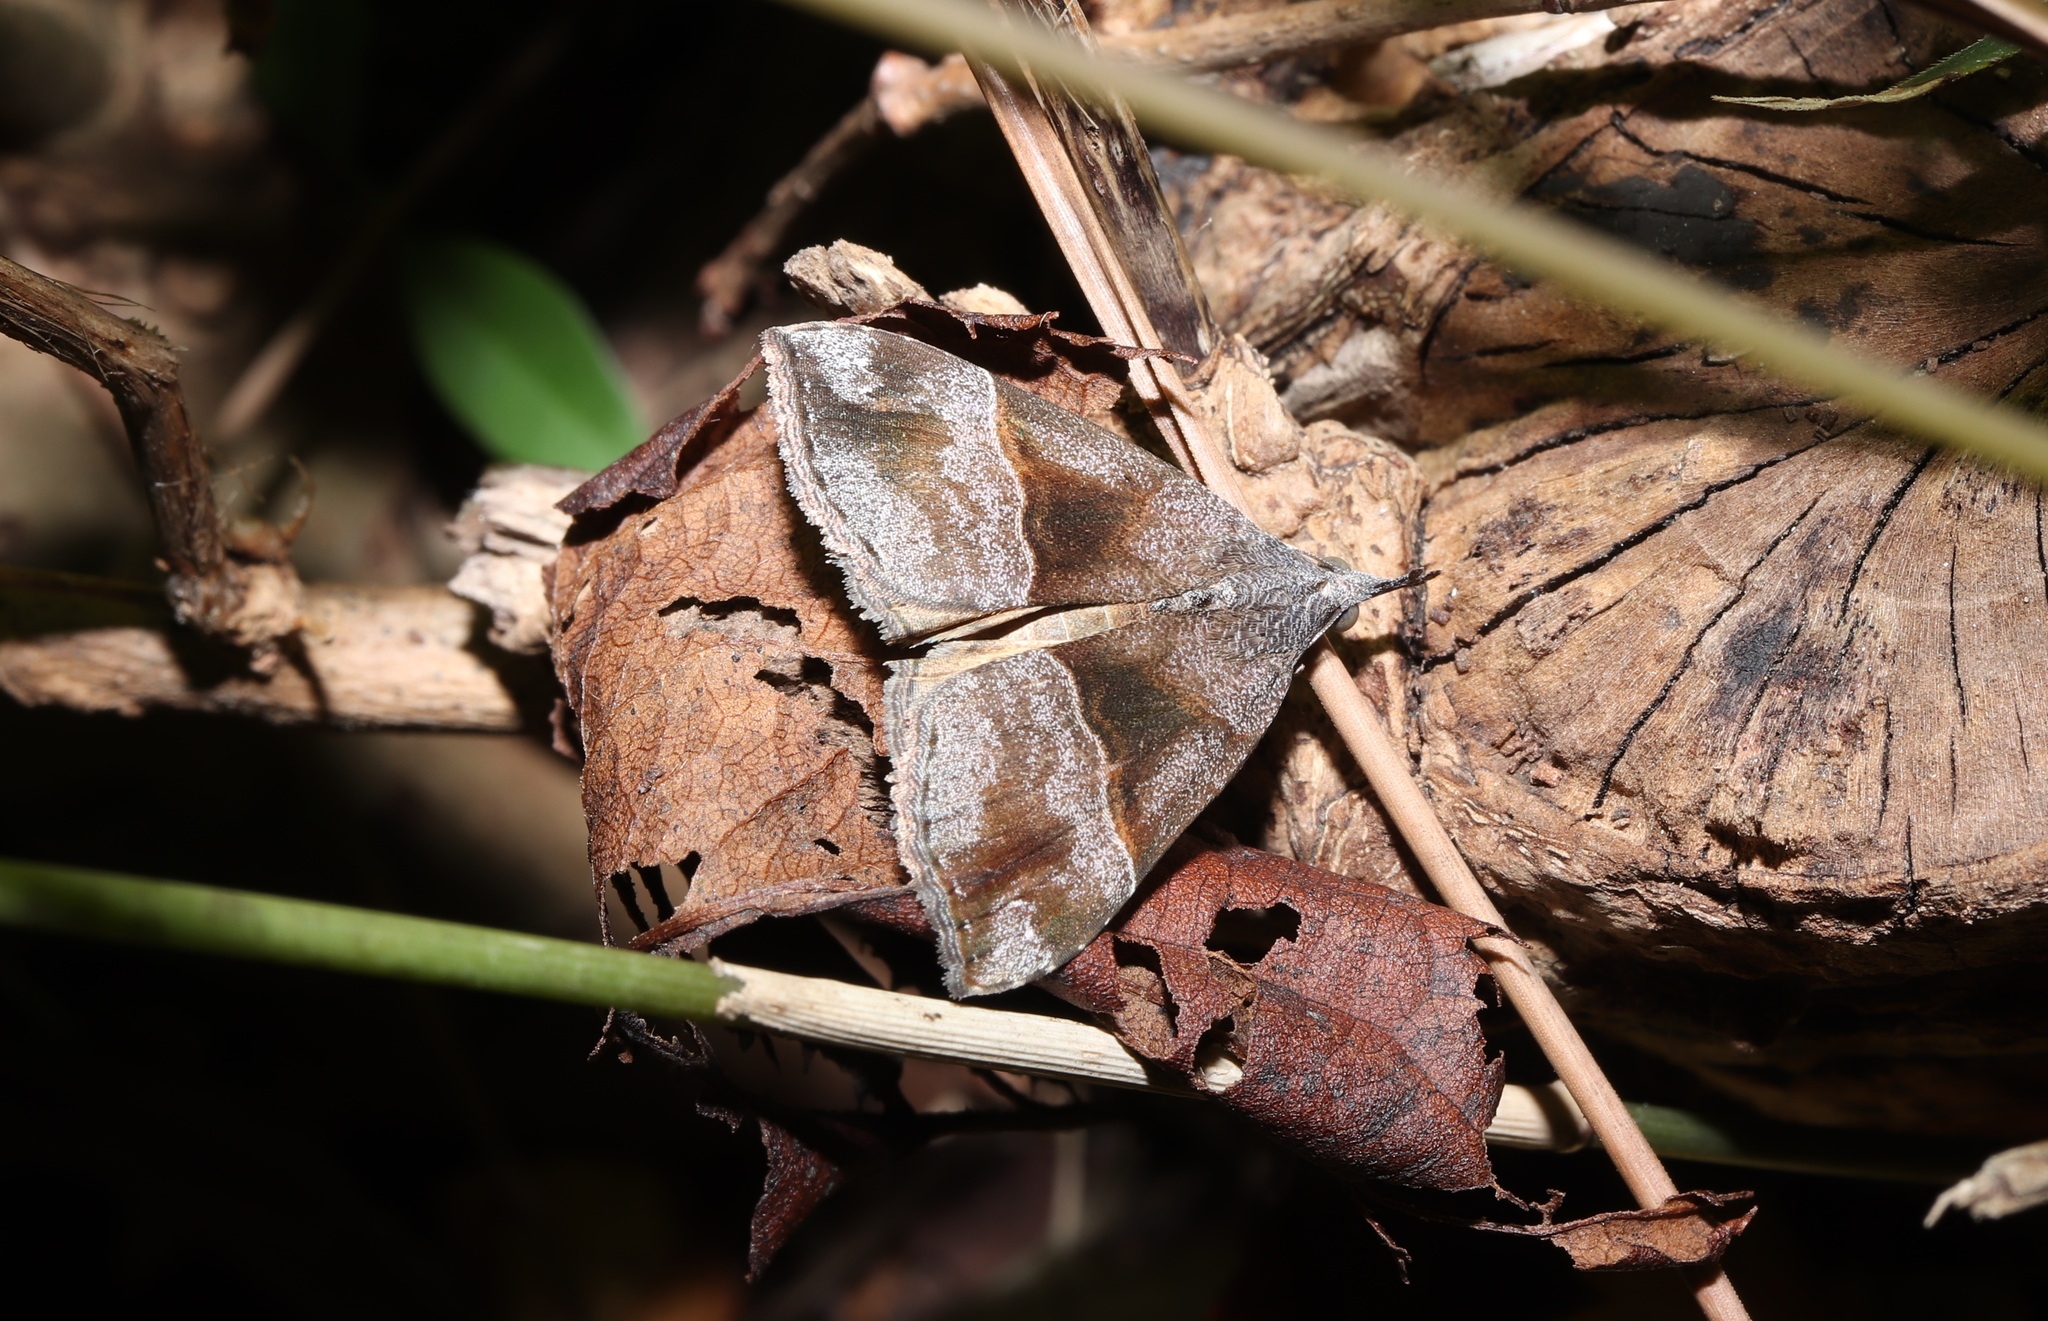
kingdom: Animalia
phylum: Arthropoda
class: Insecta
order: Lepidoptera
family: Erebidae
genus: Hypena
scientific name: Hypena amica
